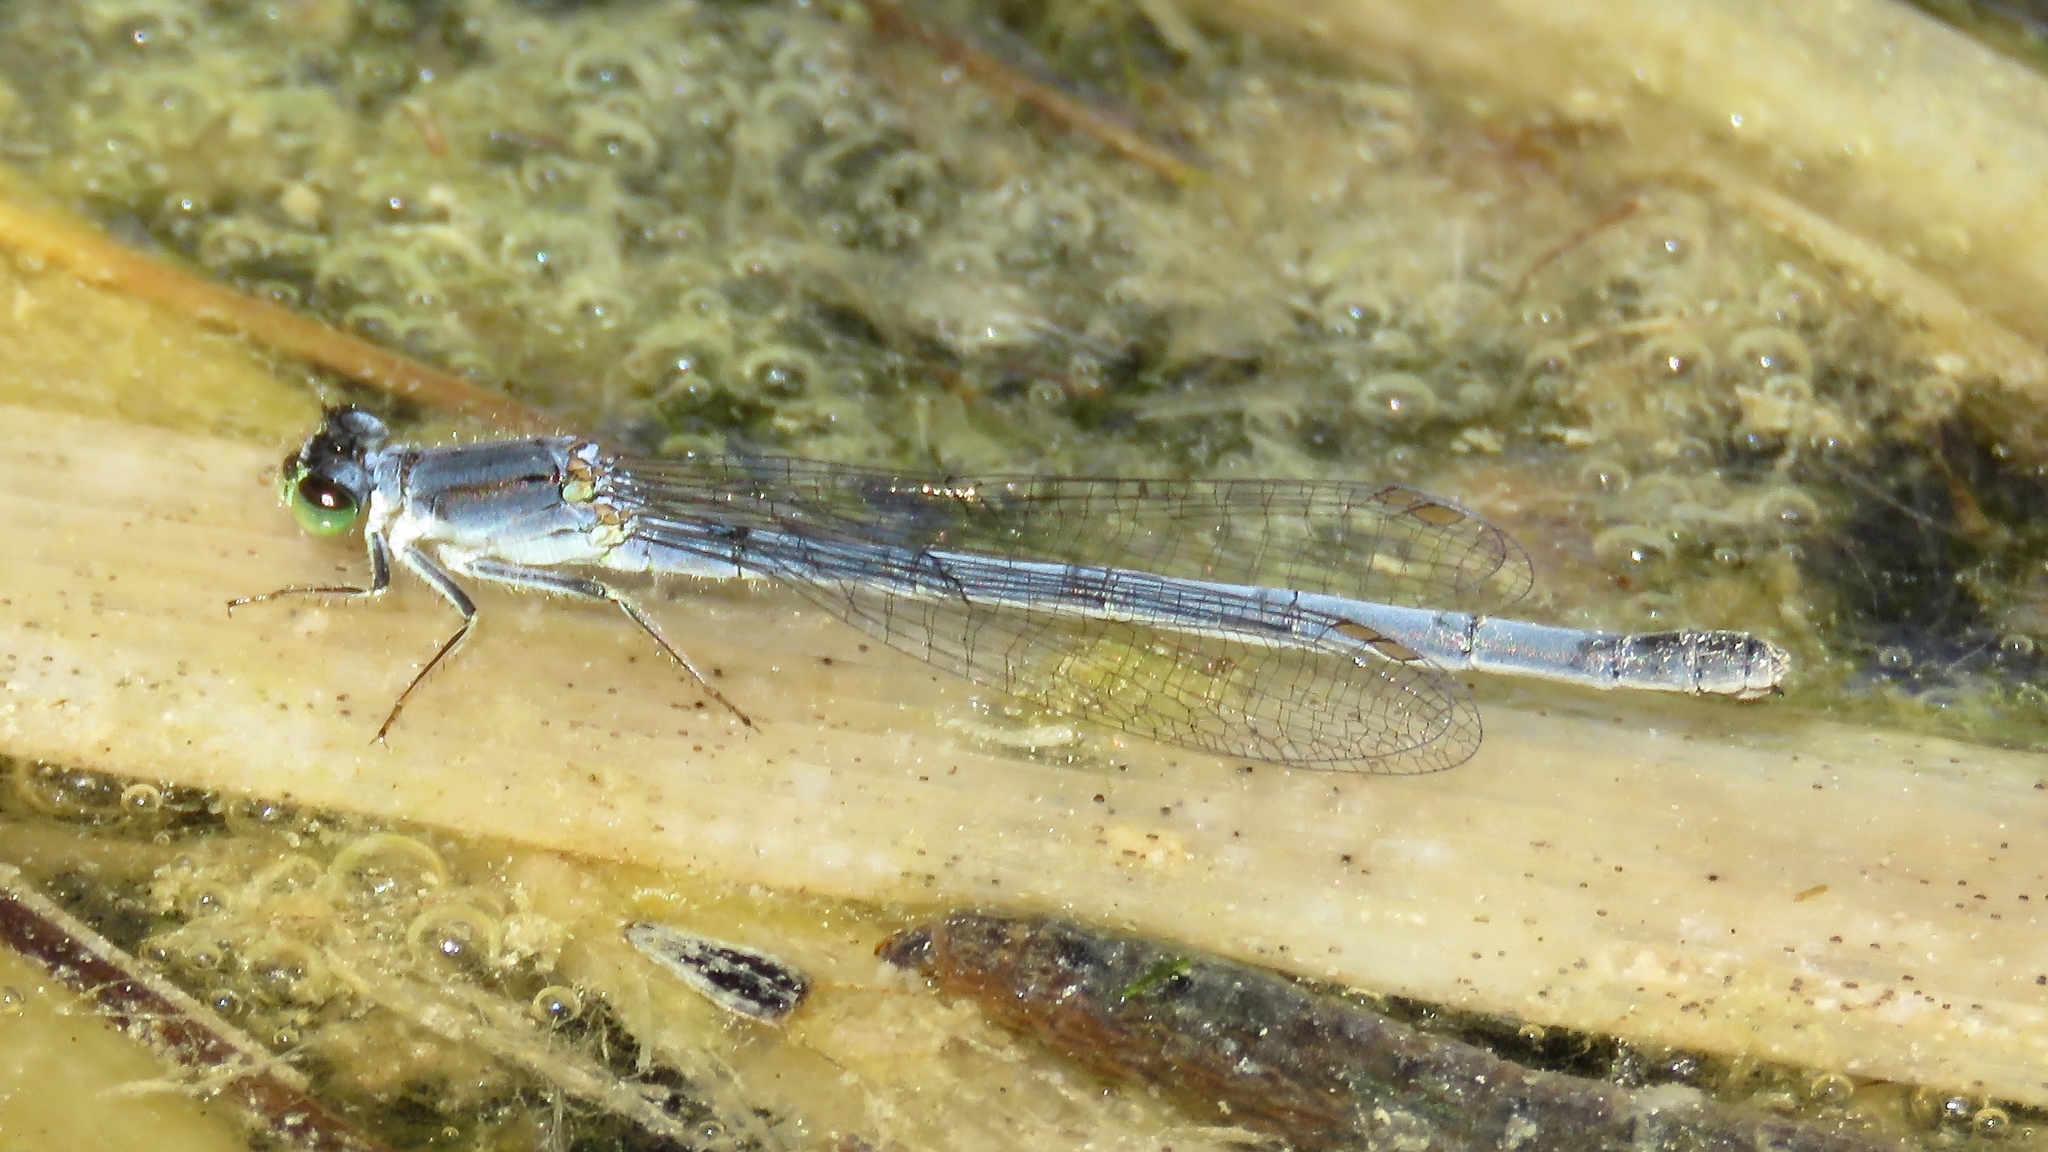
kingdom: Animalia
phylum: Arthropoda
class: Insecta
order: Odonata
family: Coenagrionidae
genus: Ischnura
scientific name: Ischnura verticalis
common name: Eastern forktail
